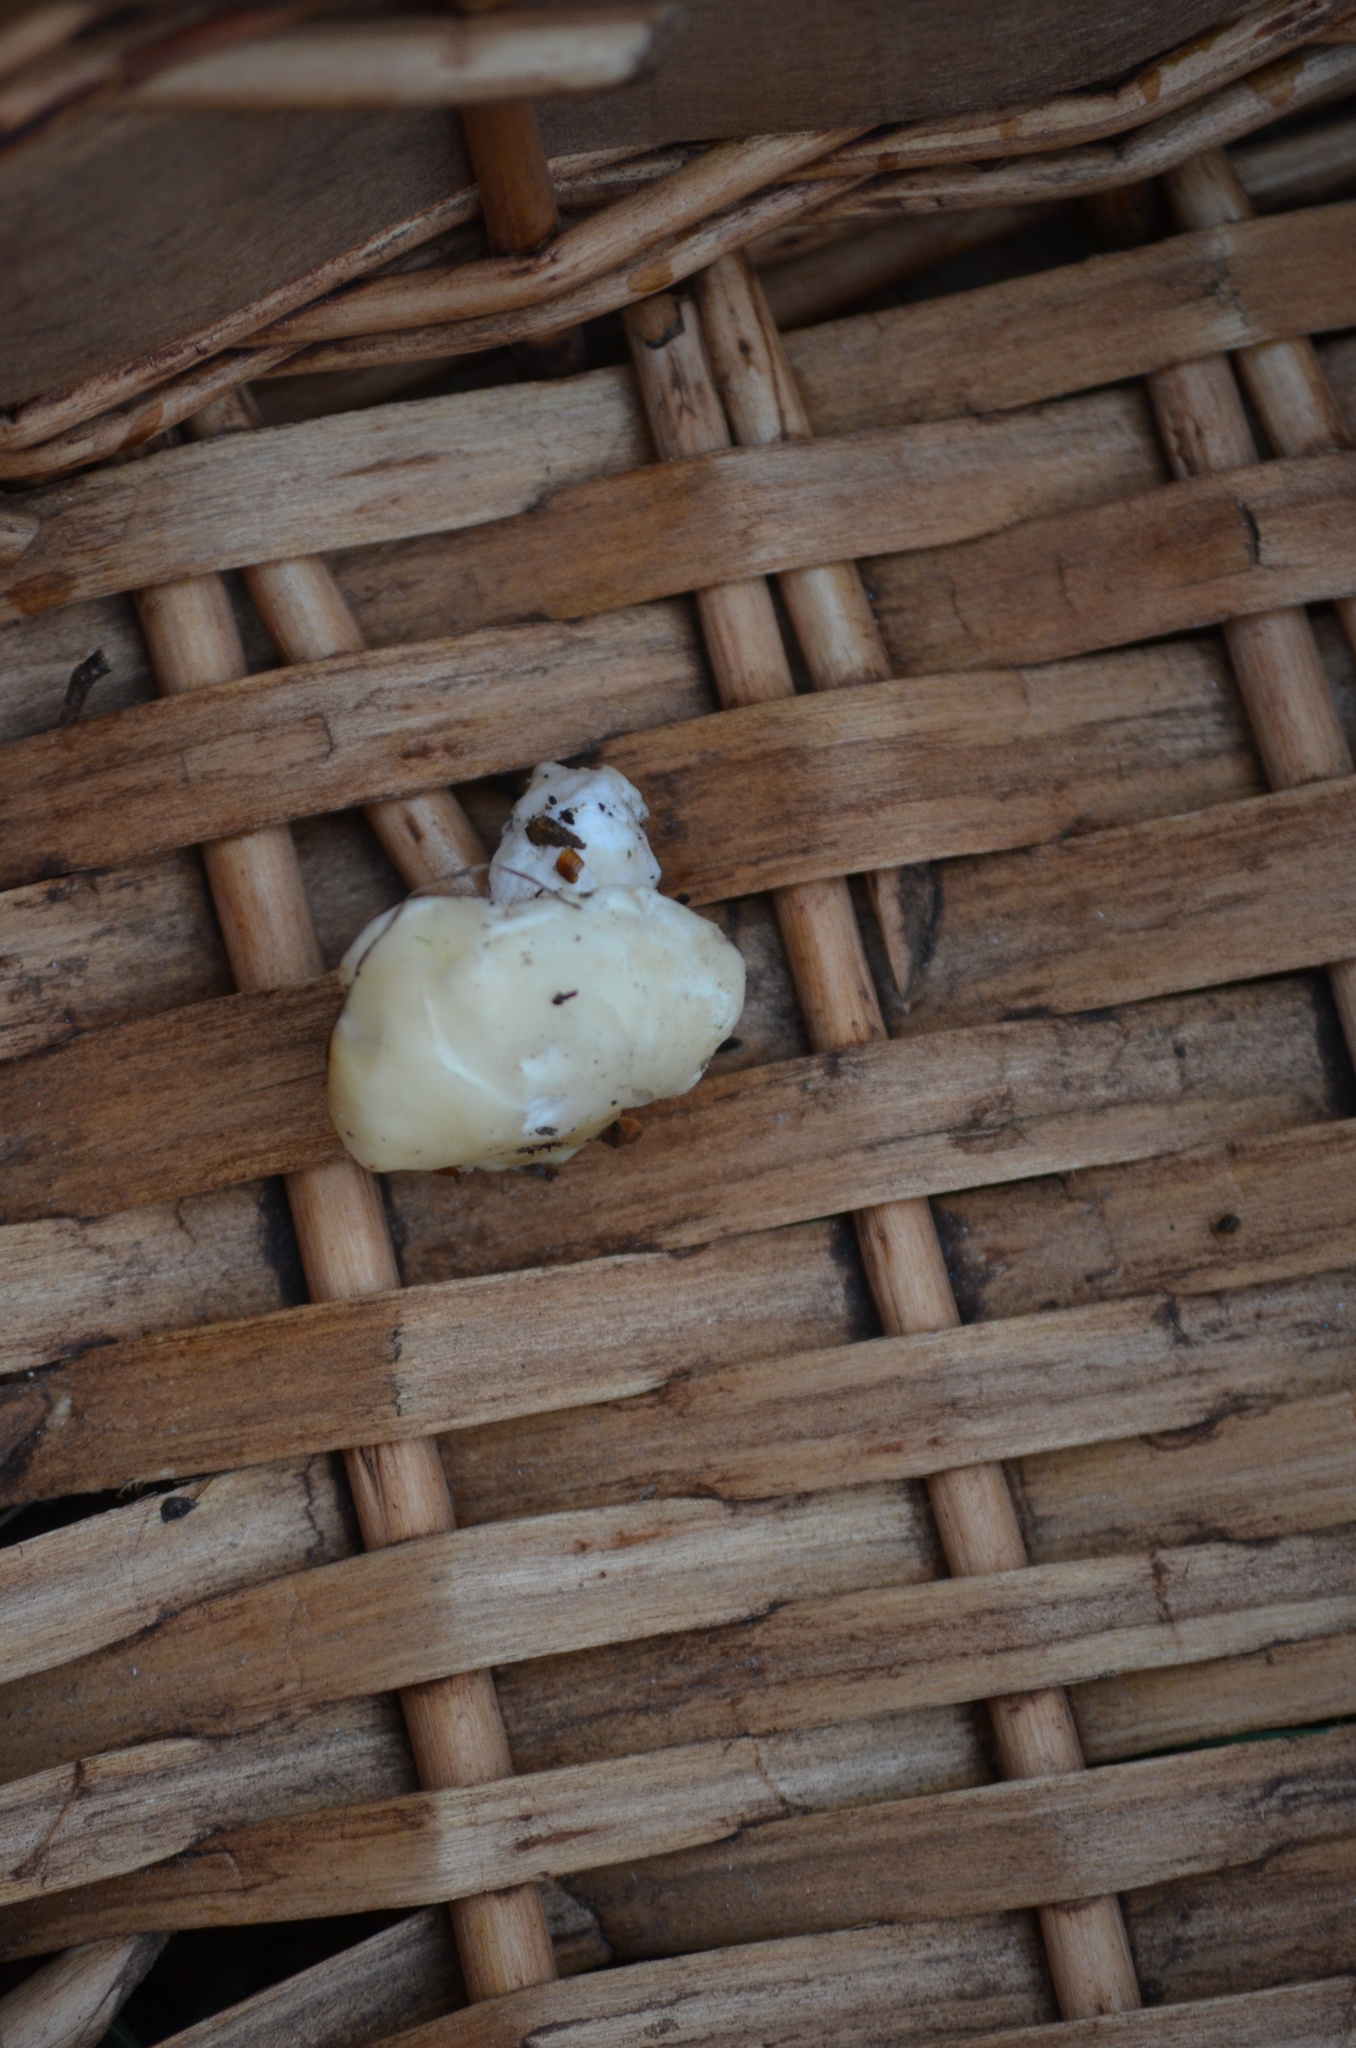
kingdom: Fungi
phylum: Basidiomycota
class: Agaricomycetes
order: Cantharellales
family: Hydnaceae
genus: Hydnum
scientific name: Hydnum repandum
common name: Wood hedgehog
